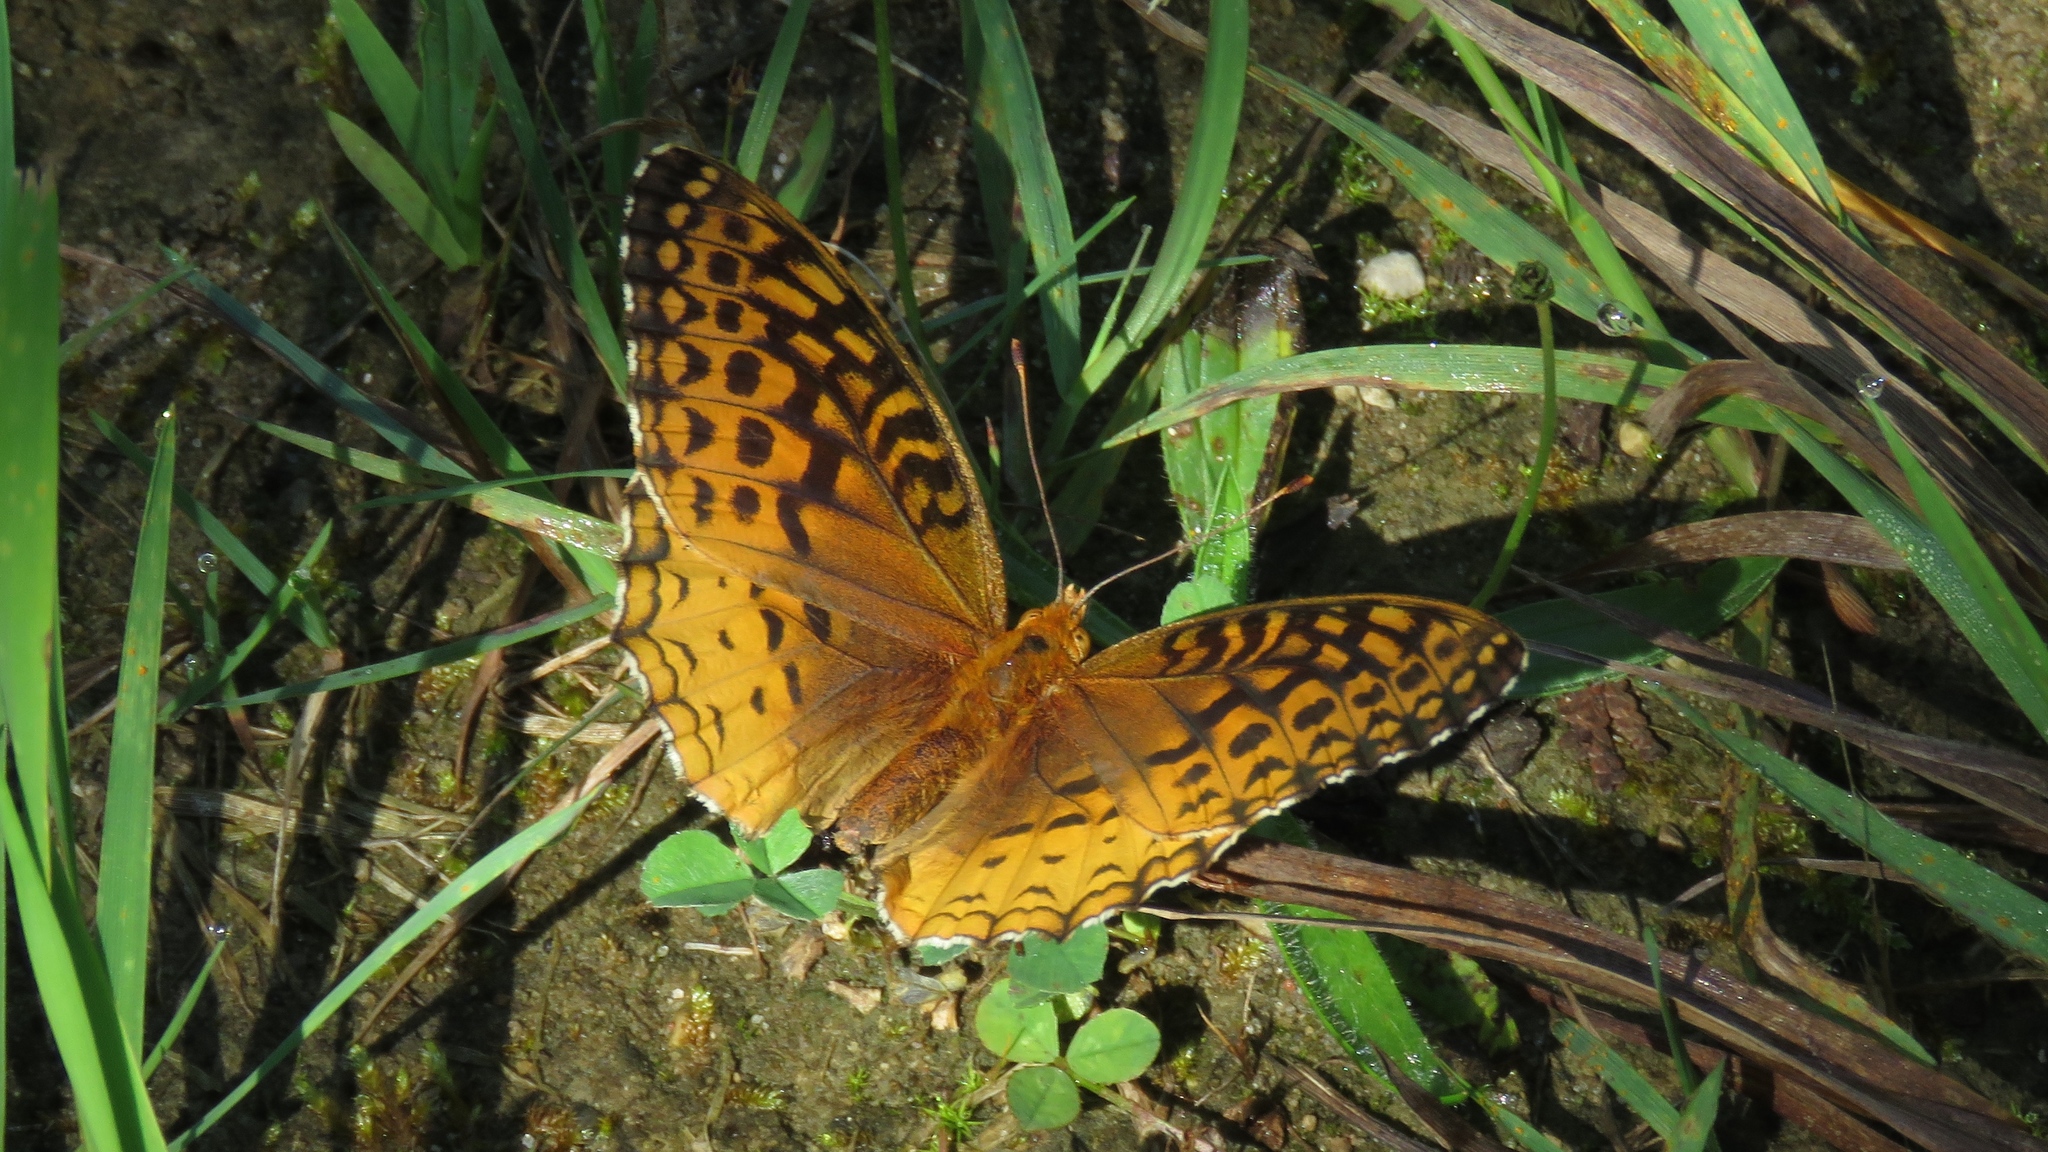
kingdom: Animalia
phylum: Arthropoda
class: Insecta
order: Lepidoptera
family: Nymphalidae
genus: Speyeria
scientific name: Speyeria cybele
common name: Great spangled fritillary
